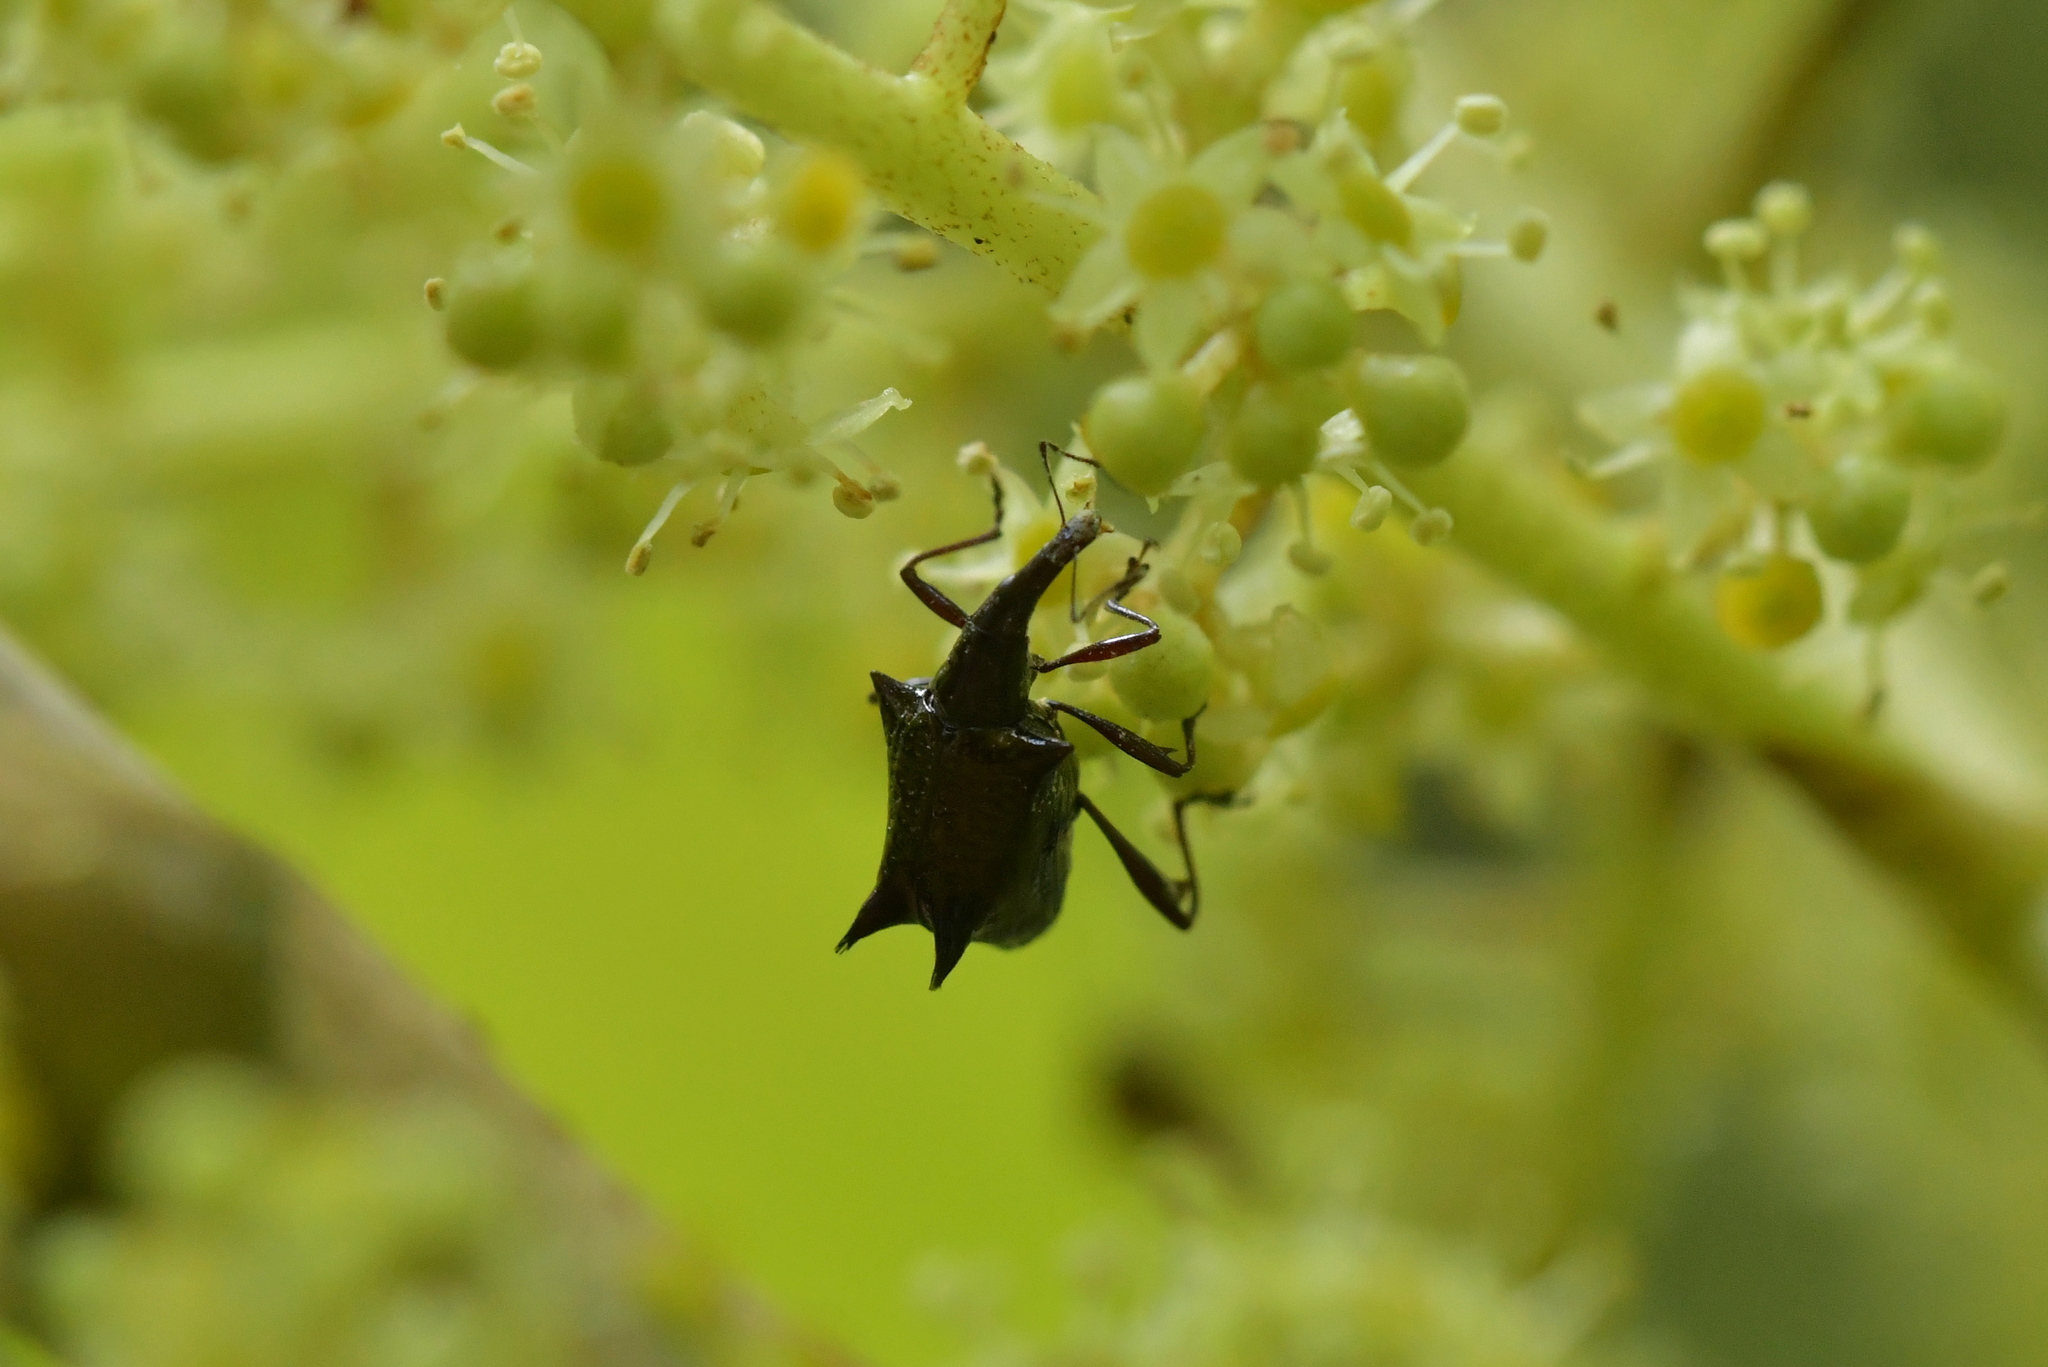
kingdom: Animalia
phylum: Arthropoda
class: Insecta
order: Coleoptera
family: Curculionidae
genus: Scolopterus
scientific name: Scolopterus aequus
